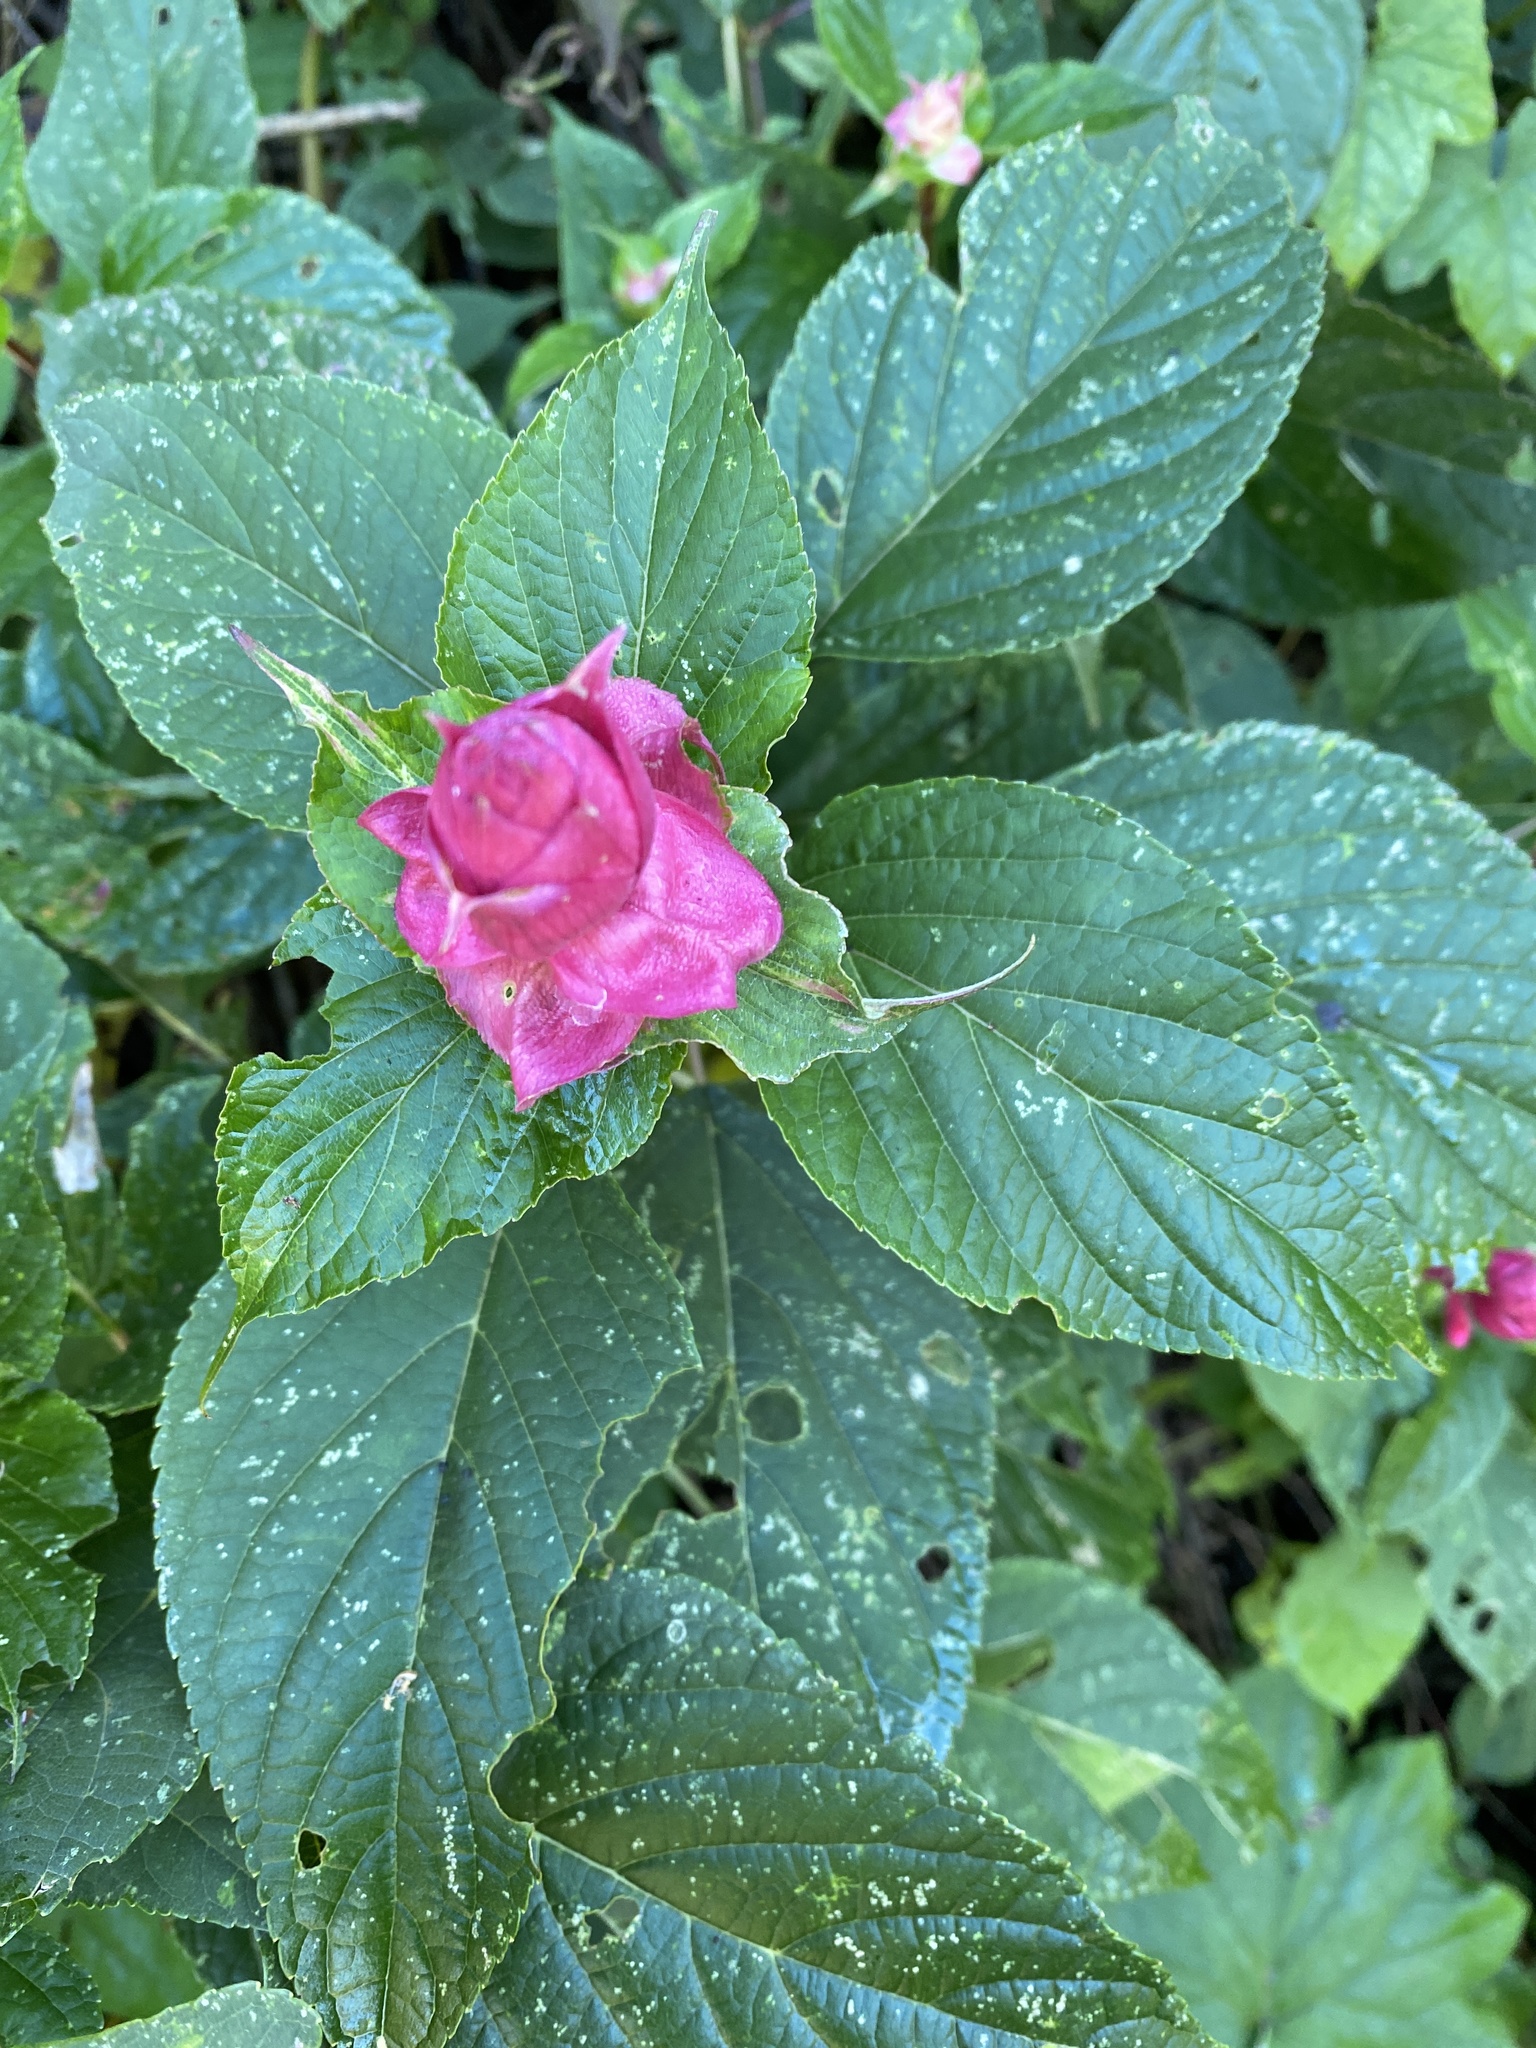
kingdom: Plantae
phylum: Tracheophyta
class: Magnoliopsida
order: Lamiales
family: Lamiaceae
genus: Salvia
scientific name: Salvia wagneriana
